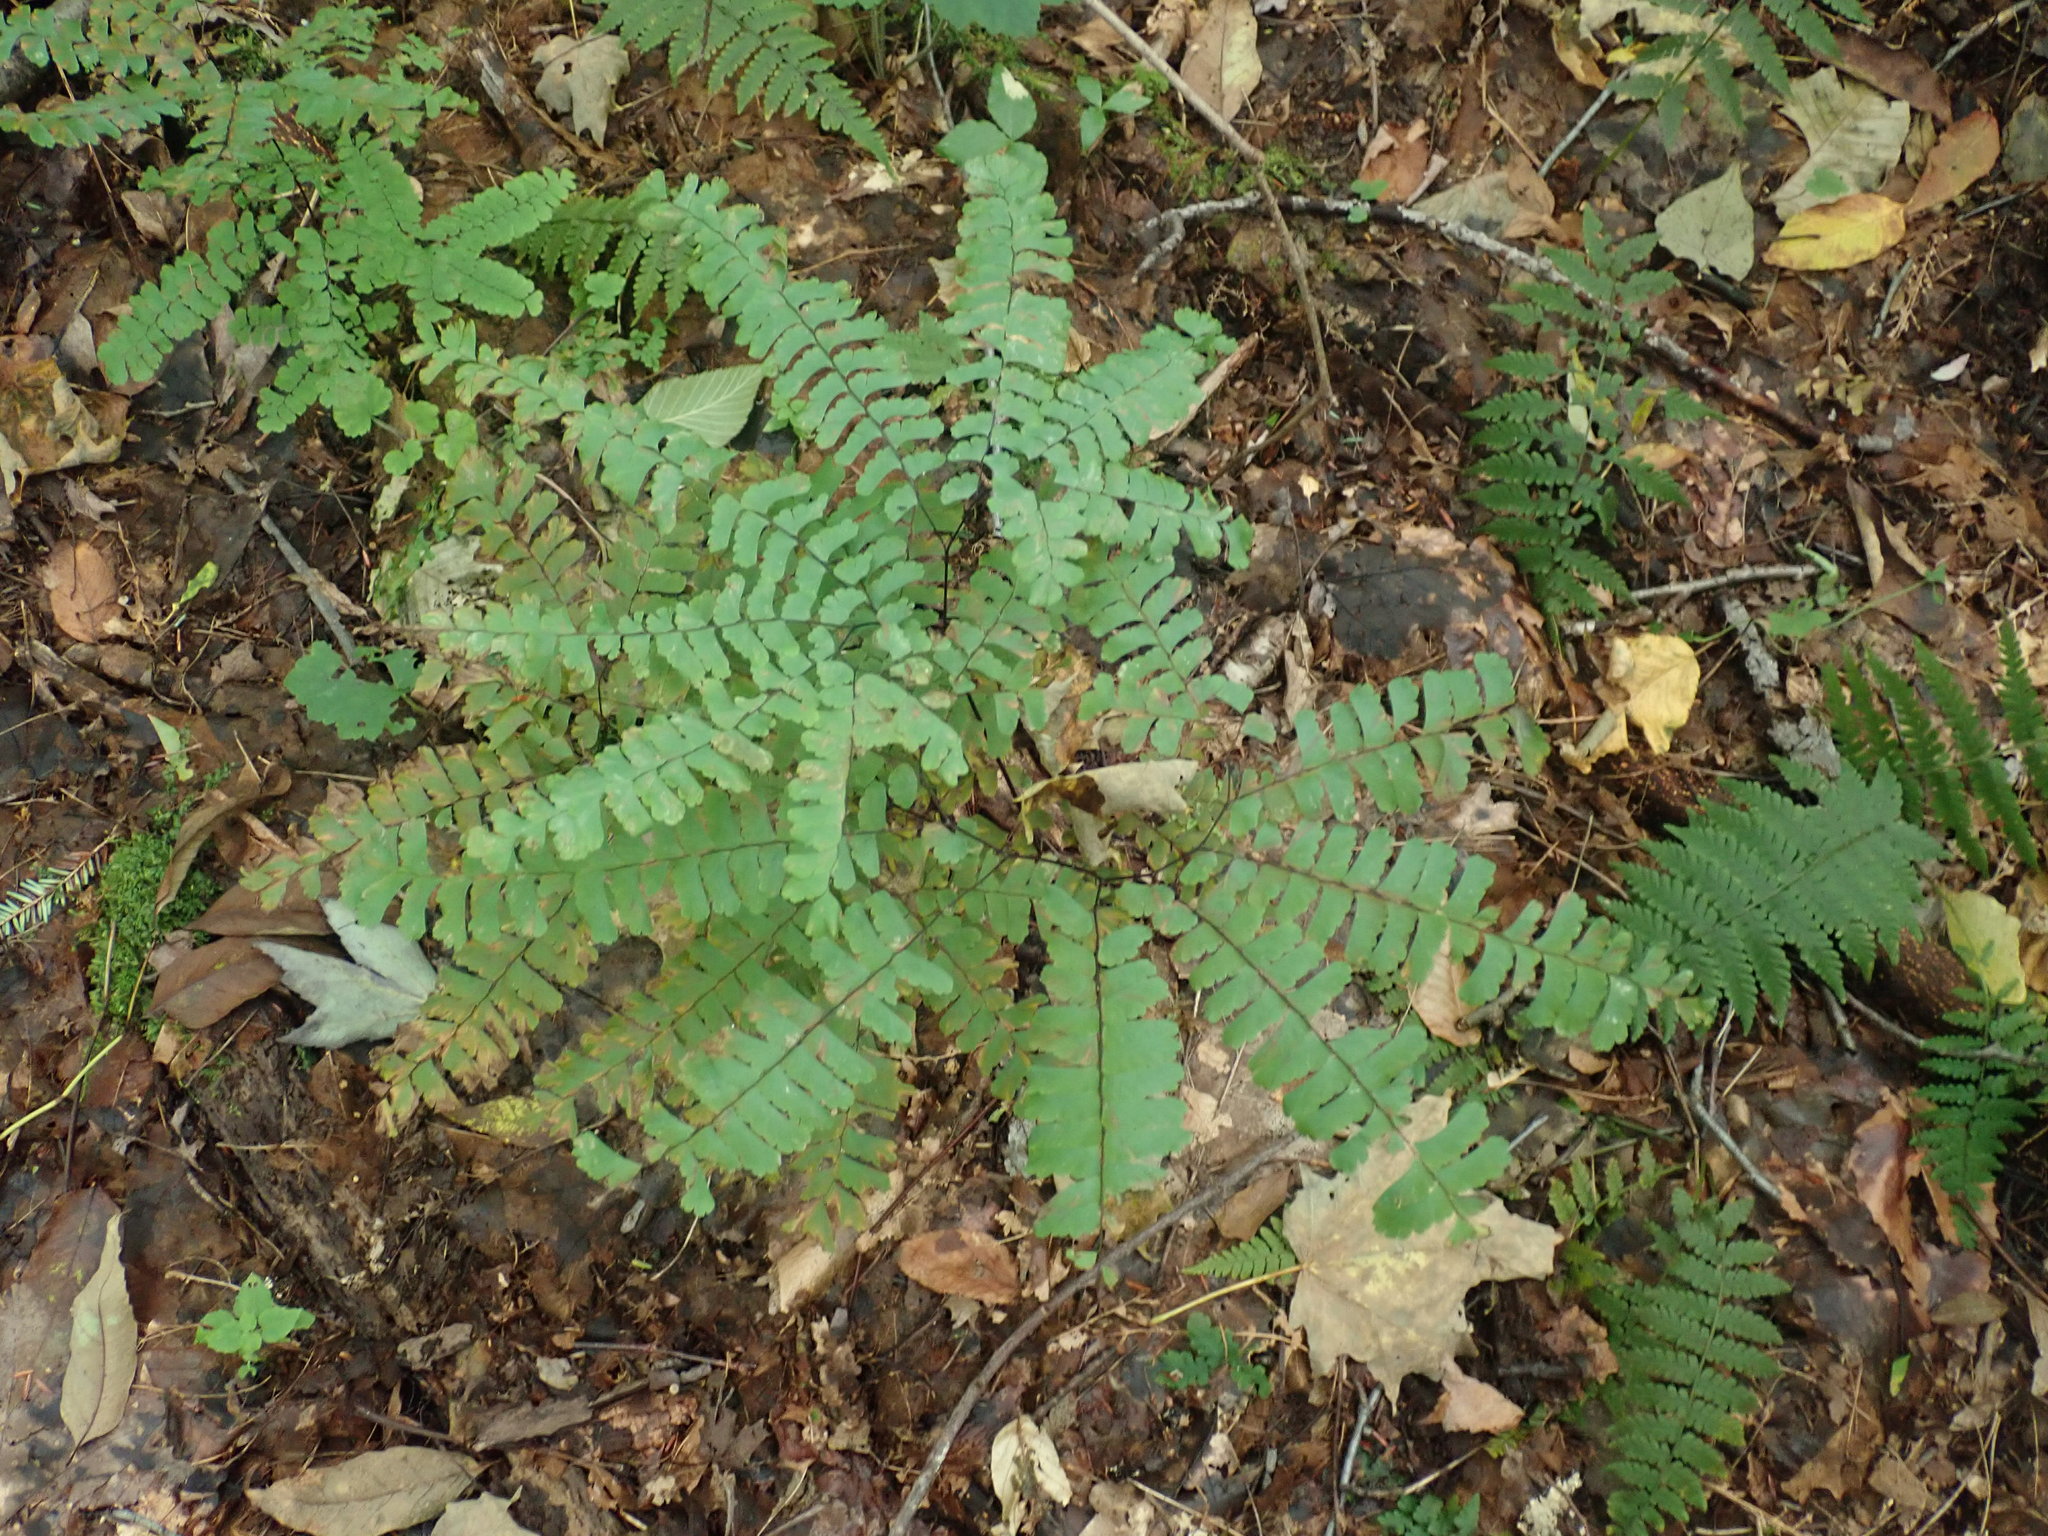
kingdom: Plantae
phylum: Tracheophyta
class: Polypodiopsida
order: Polypodiales
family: Pteridaceae
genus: Adiantum
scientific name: Adiantum pedatum
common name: Five-finger fern
